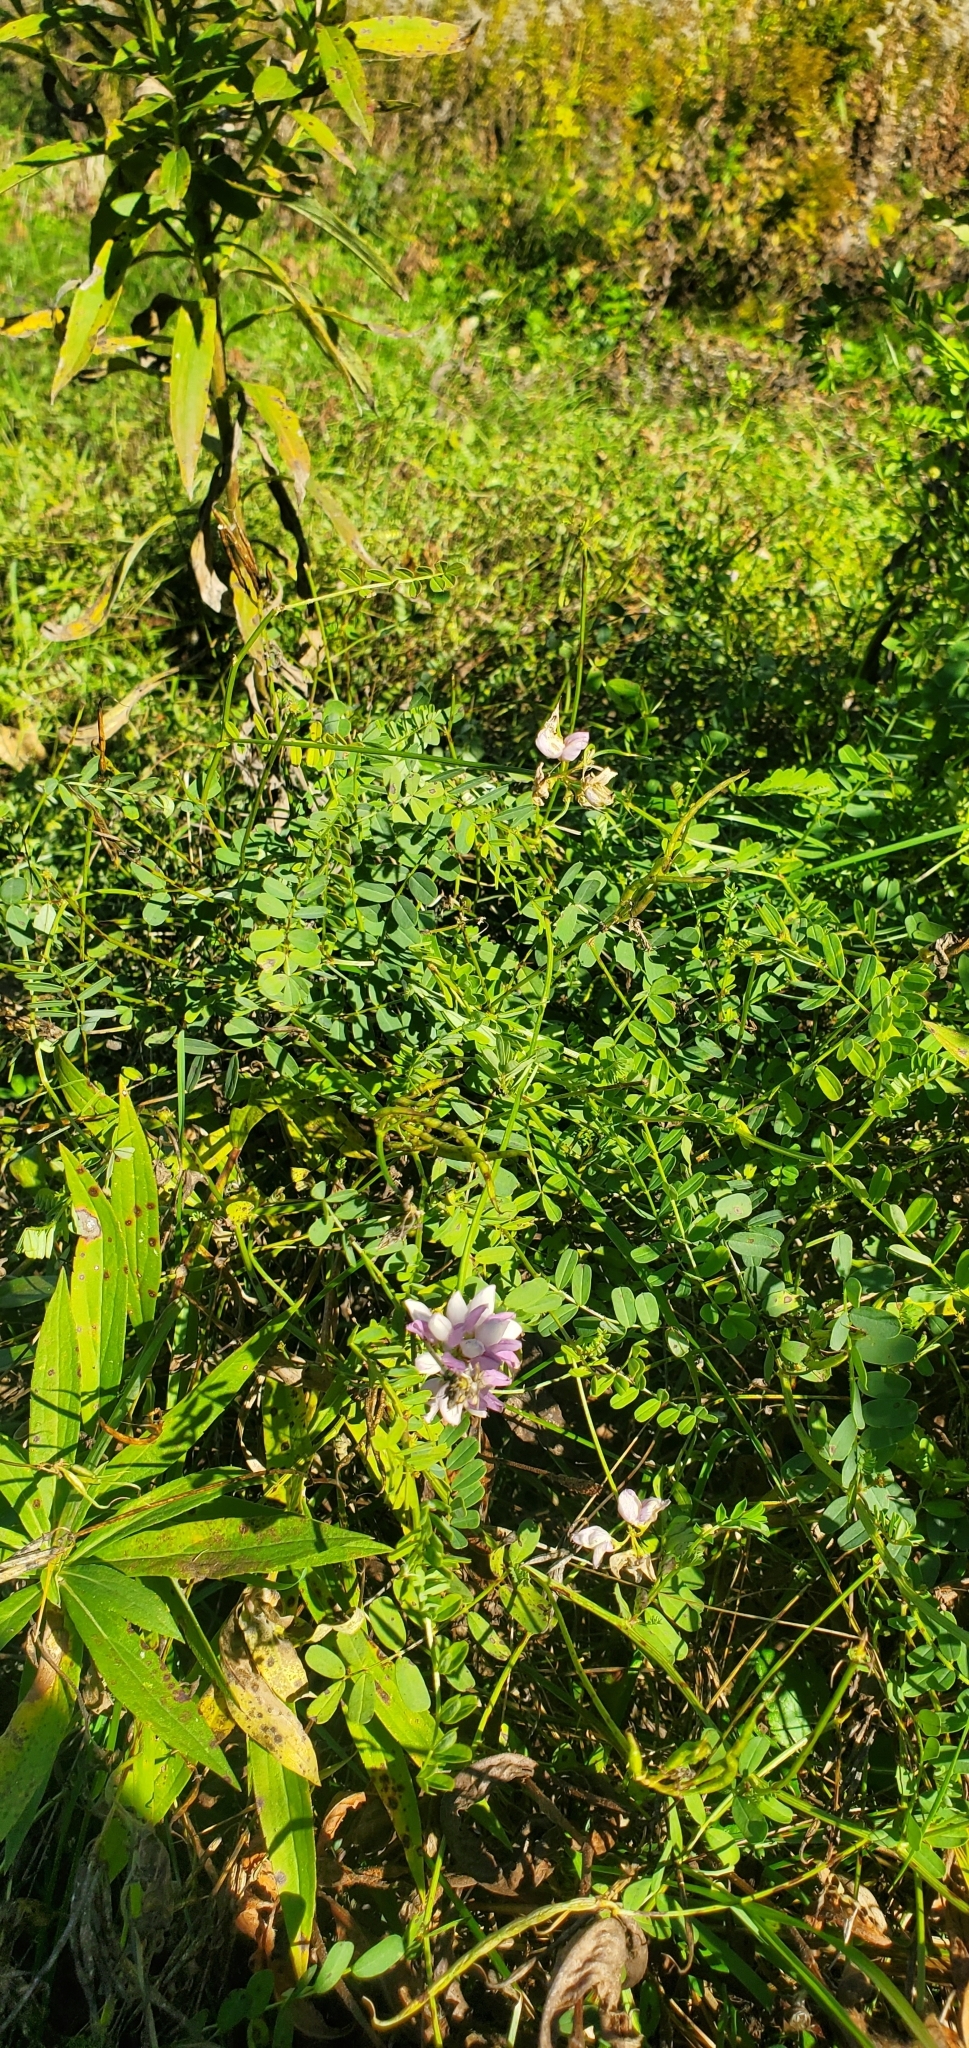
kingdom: Plantae
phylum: Tracheophyta
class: Magnoliopsida
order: Fabales
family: Fabaceae
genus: Coronilla
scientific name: Coronilla varia
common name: Crownvetch
